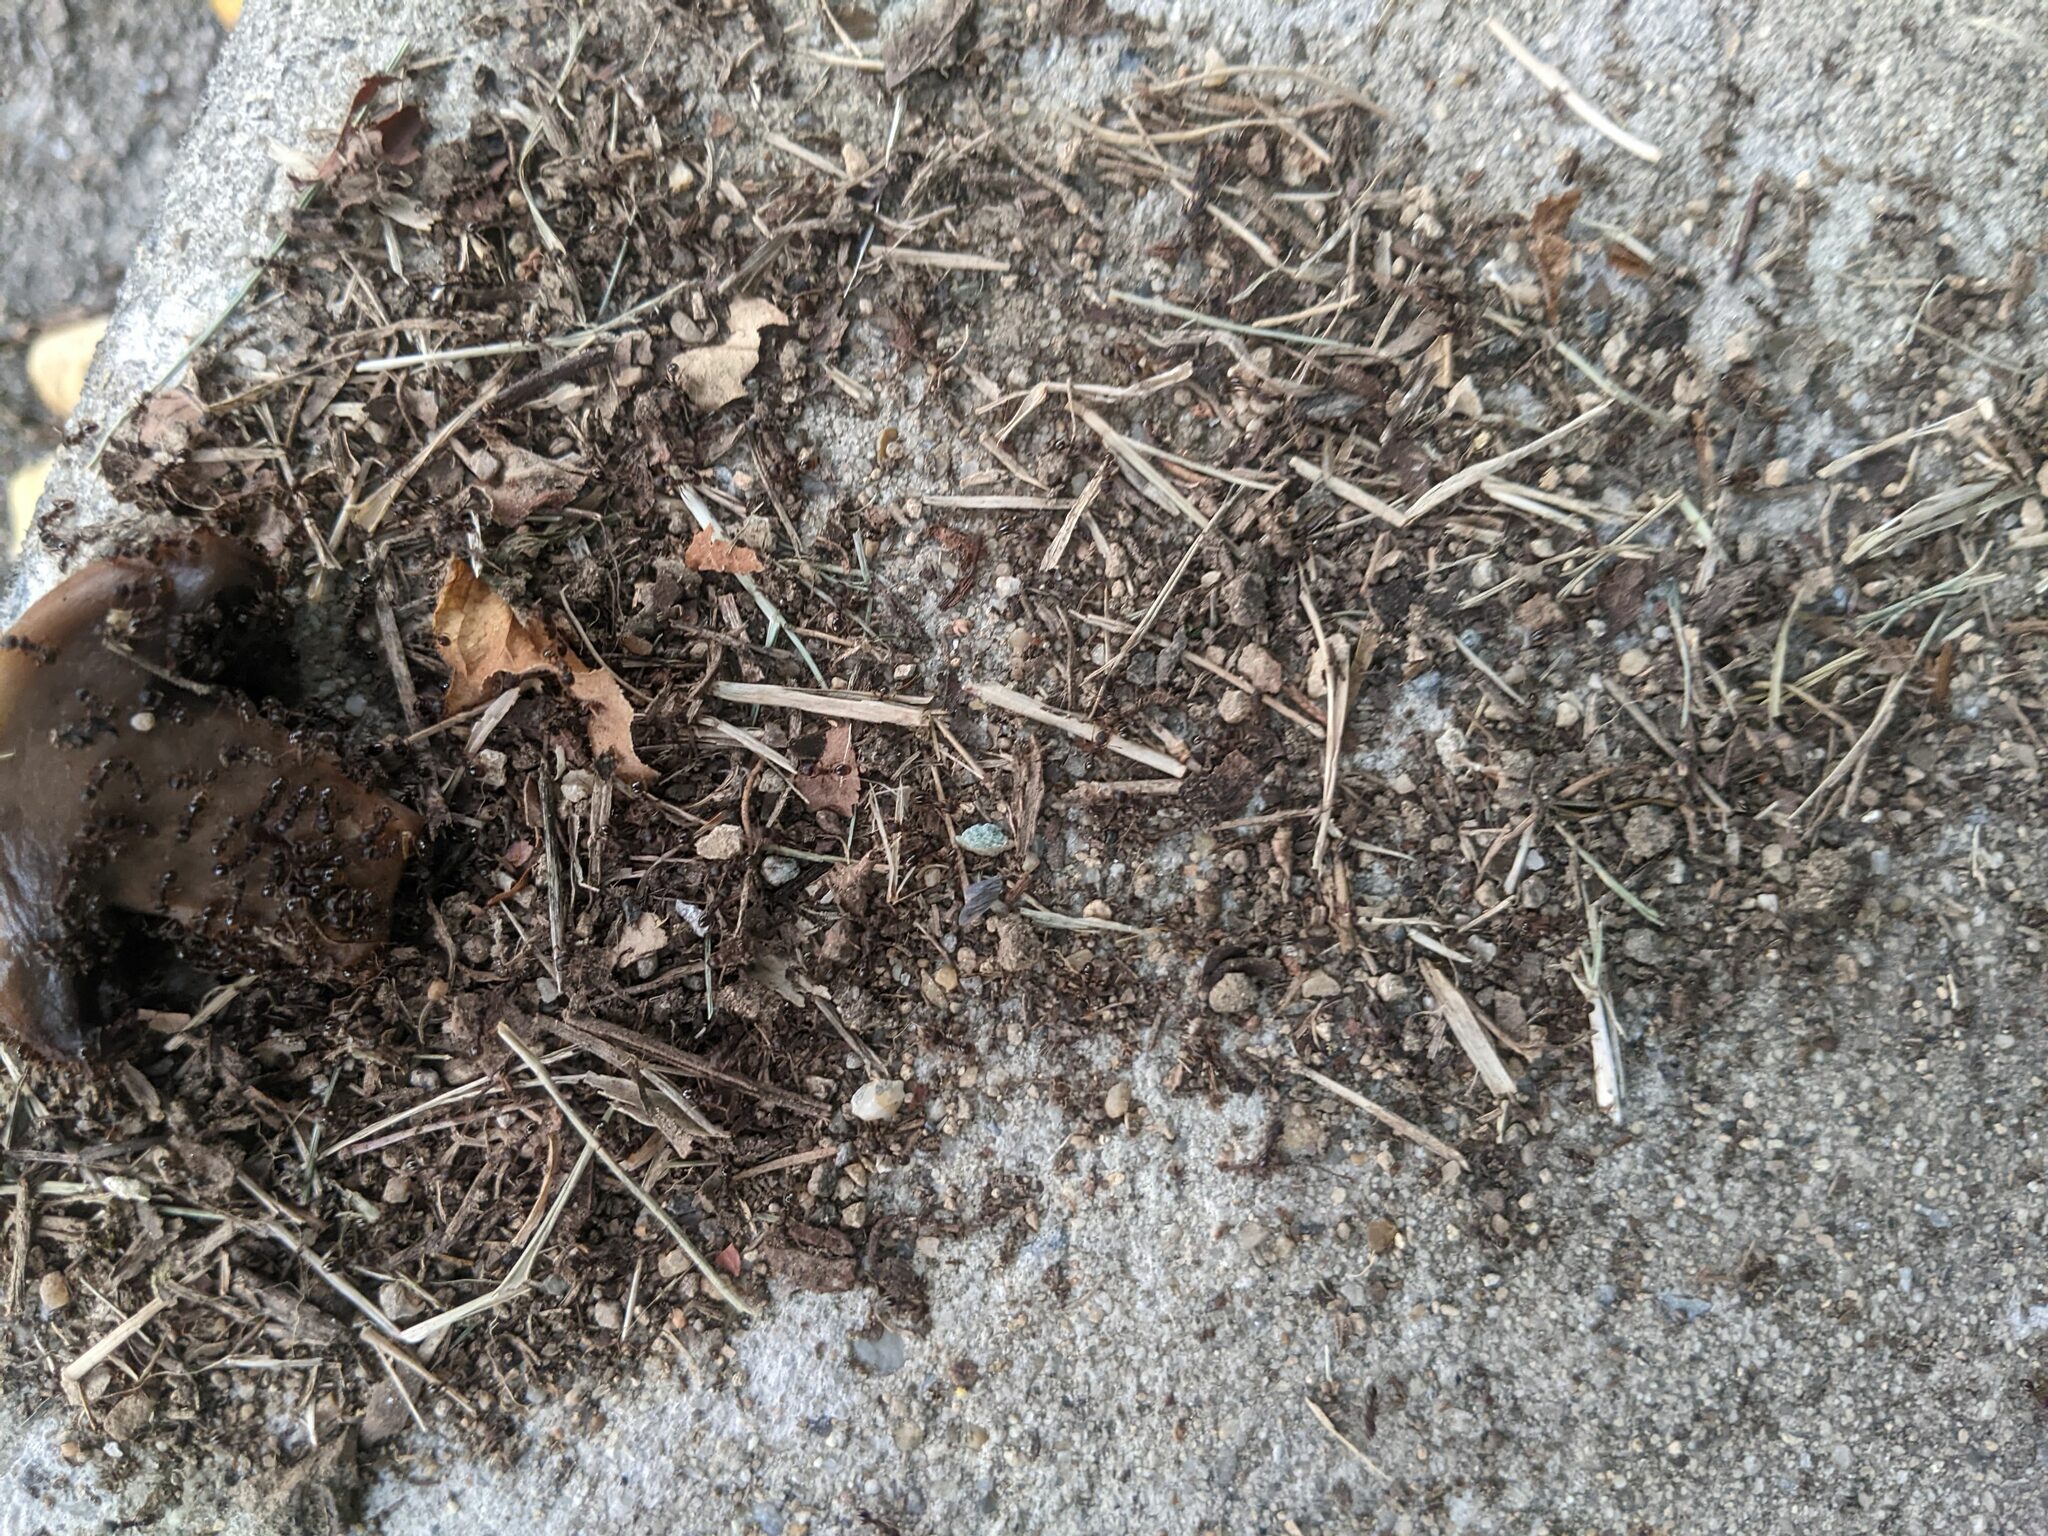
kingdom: Animalia
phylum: Arthropoda
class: Insecta
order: Hymenoptera
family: Formicidae
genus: Tetramorium
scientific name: Tetramorium immigrans
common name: Pavement ant
